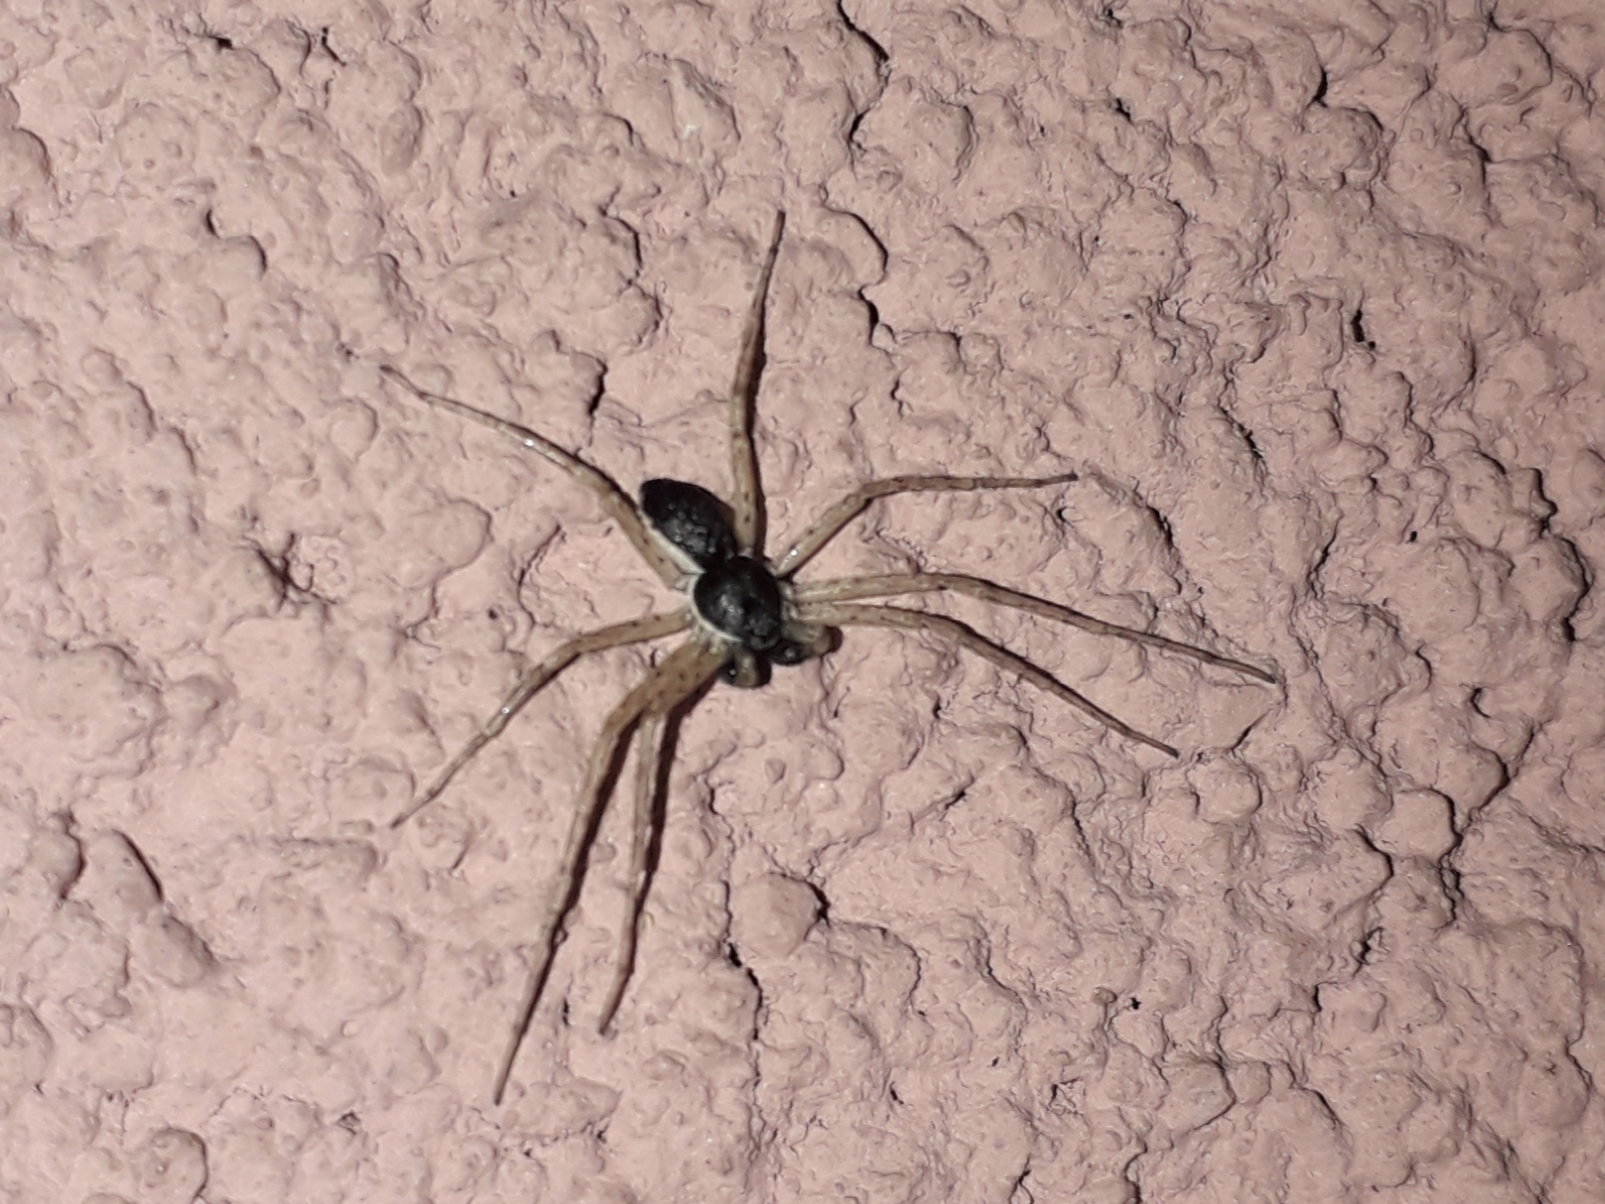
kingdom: Animalia
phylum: Arthropoda
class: Arachnida
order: Araneae
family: Philodromidae
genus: Philodromus
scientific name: Philodromus dispar
